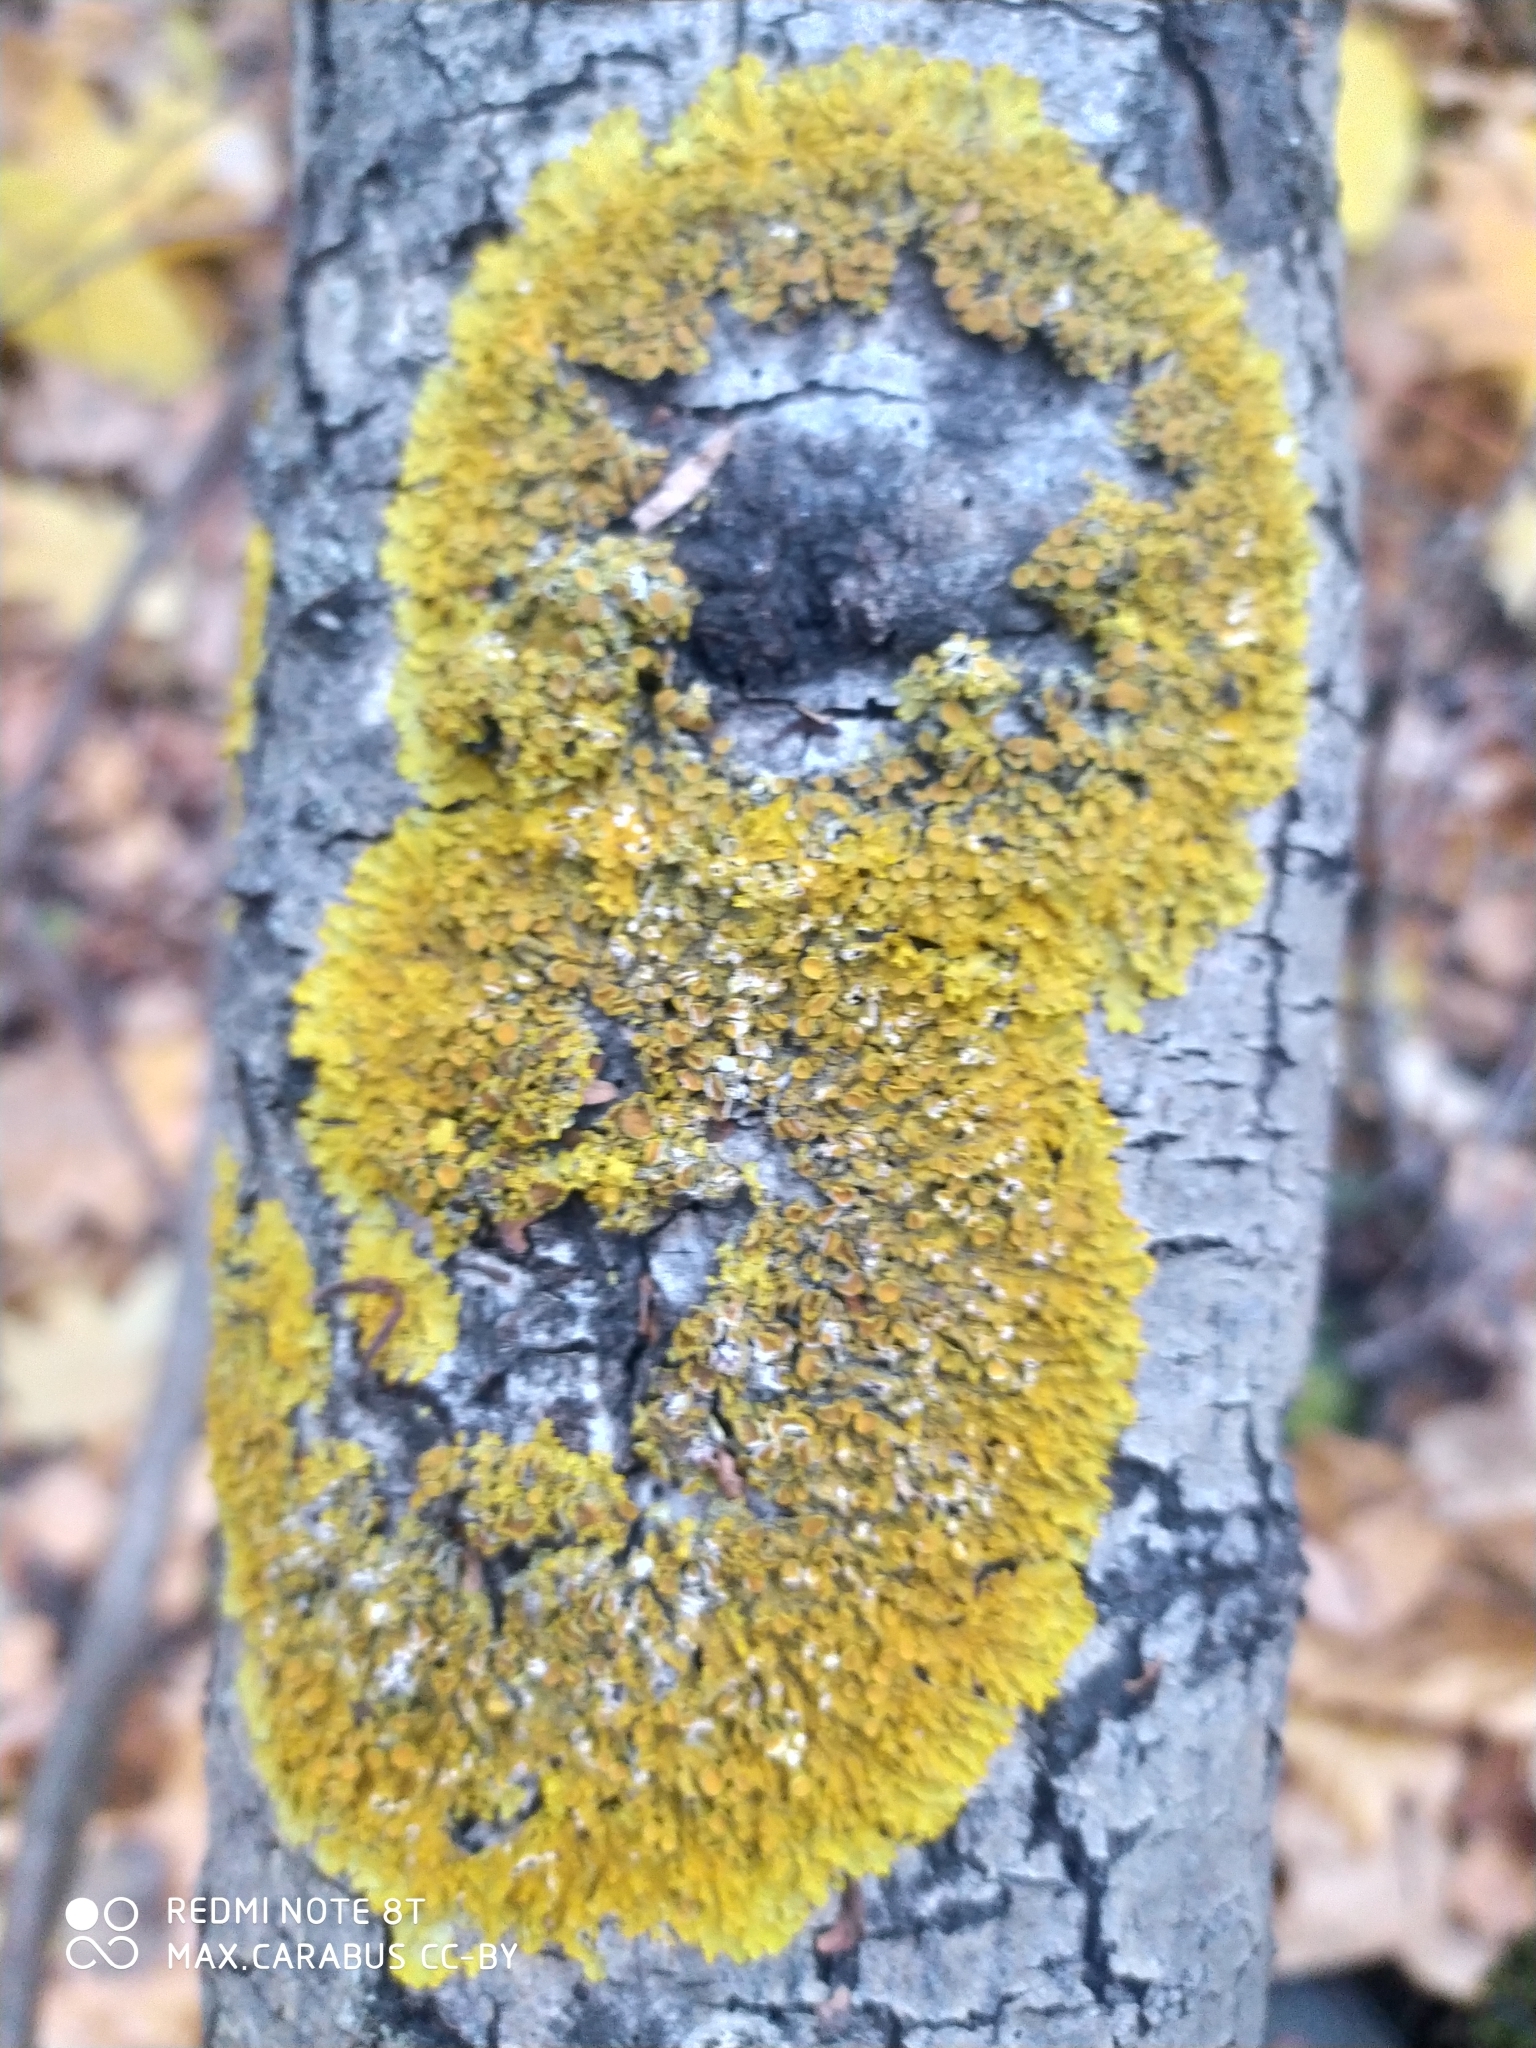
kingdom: Fungi
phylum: Ascomycota
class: Lecanoromycetes
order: Teloschistales
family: Teloschistaceae
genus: Xanthoria
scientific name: Xanthoria parietina
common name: Common orange lichen
